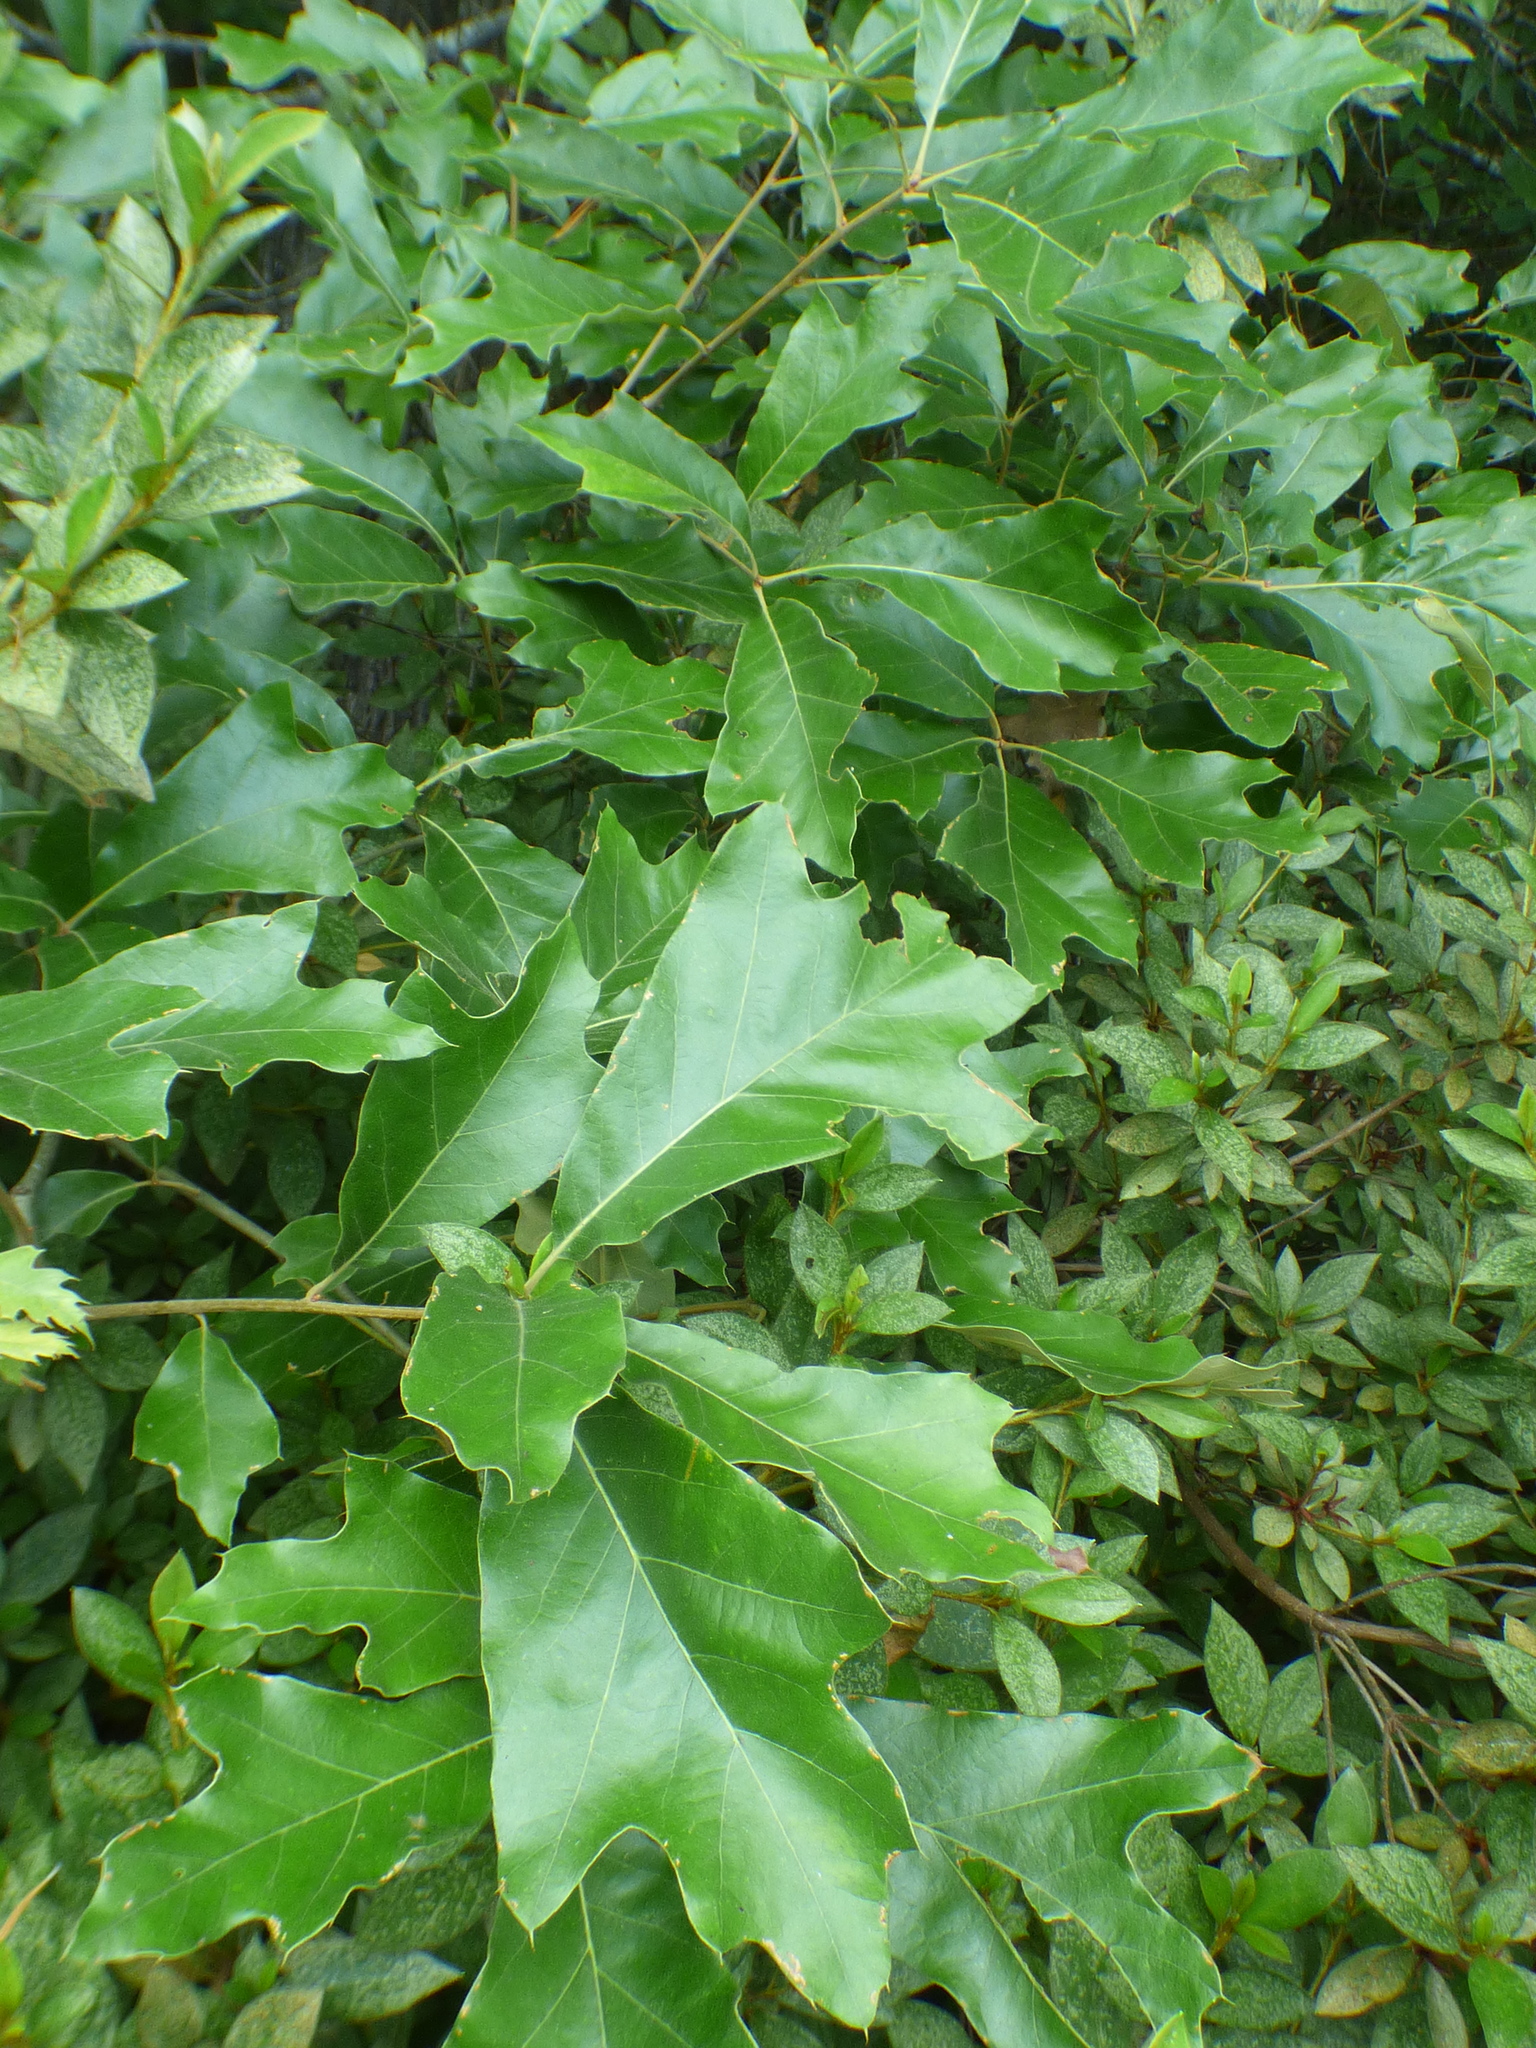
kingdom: Plantae
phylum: Tracheophyta
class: Magnoliopsida
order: Fagales
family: Fagaceae
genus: Quercus
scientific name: Quercus falcata
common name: Southern red oak
